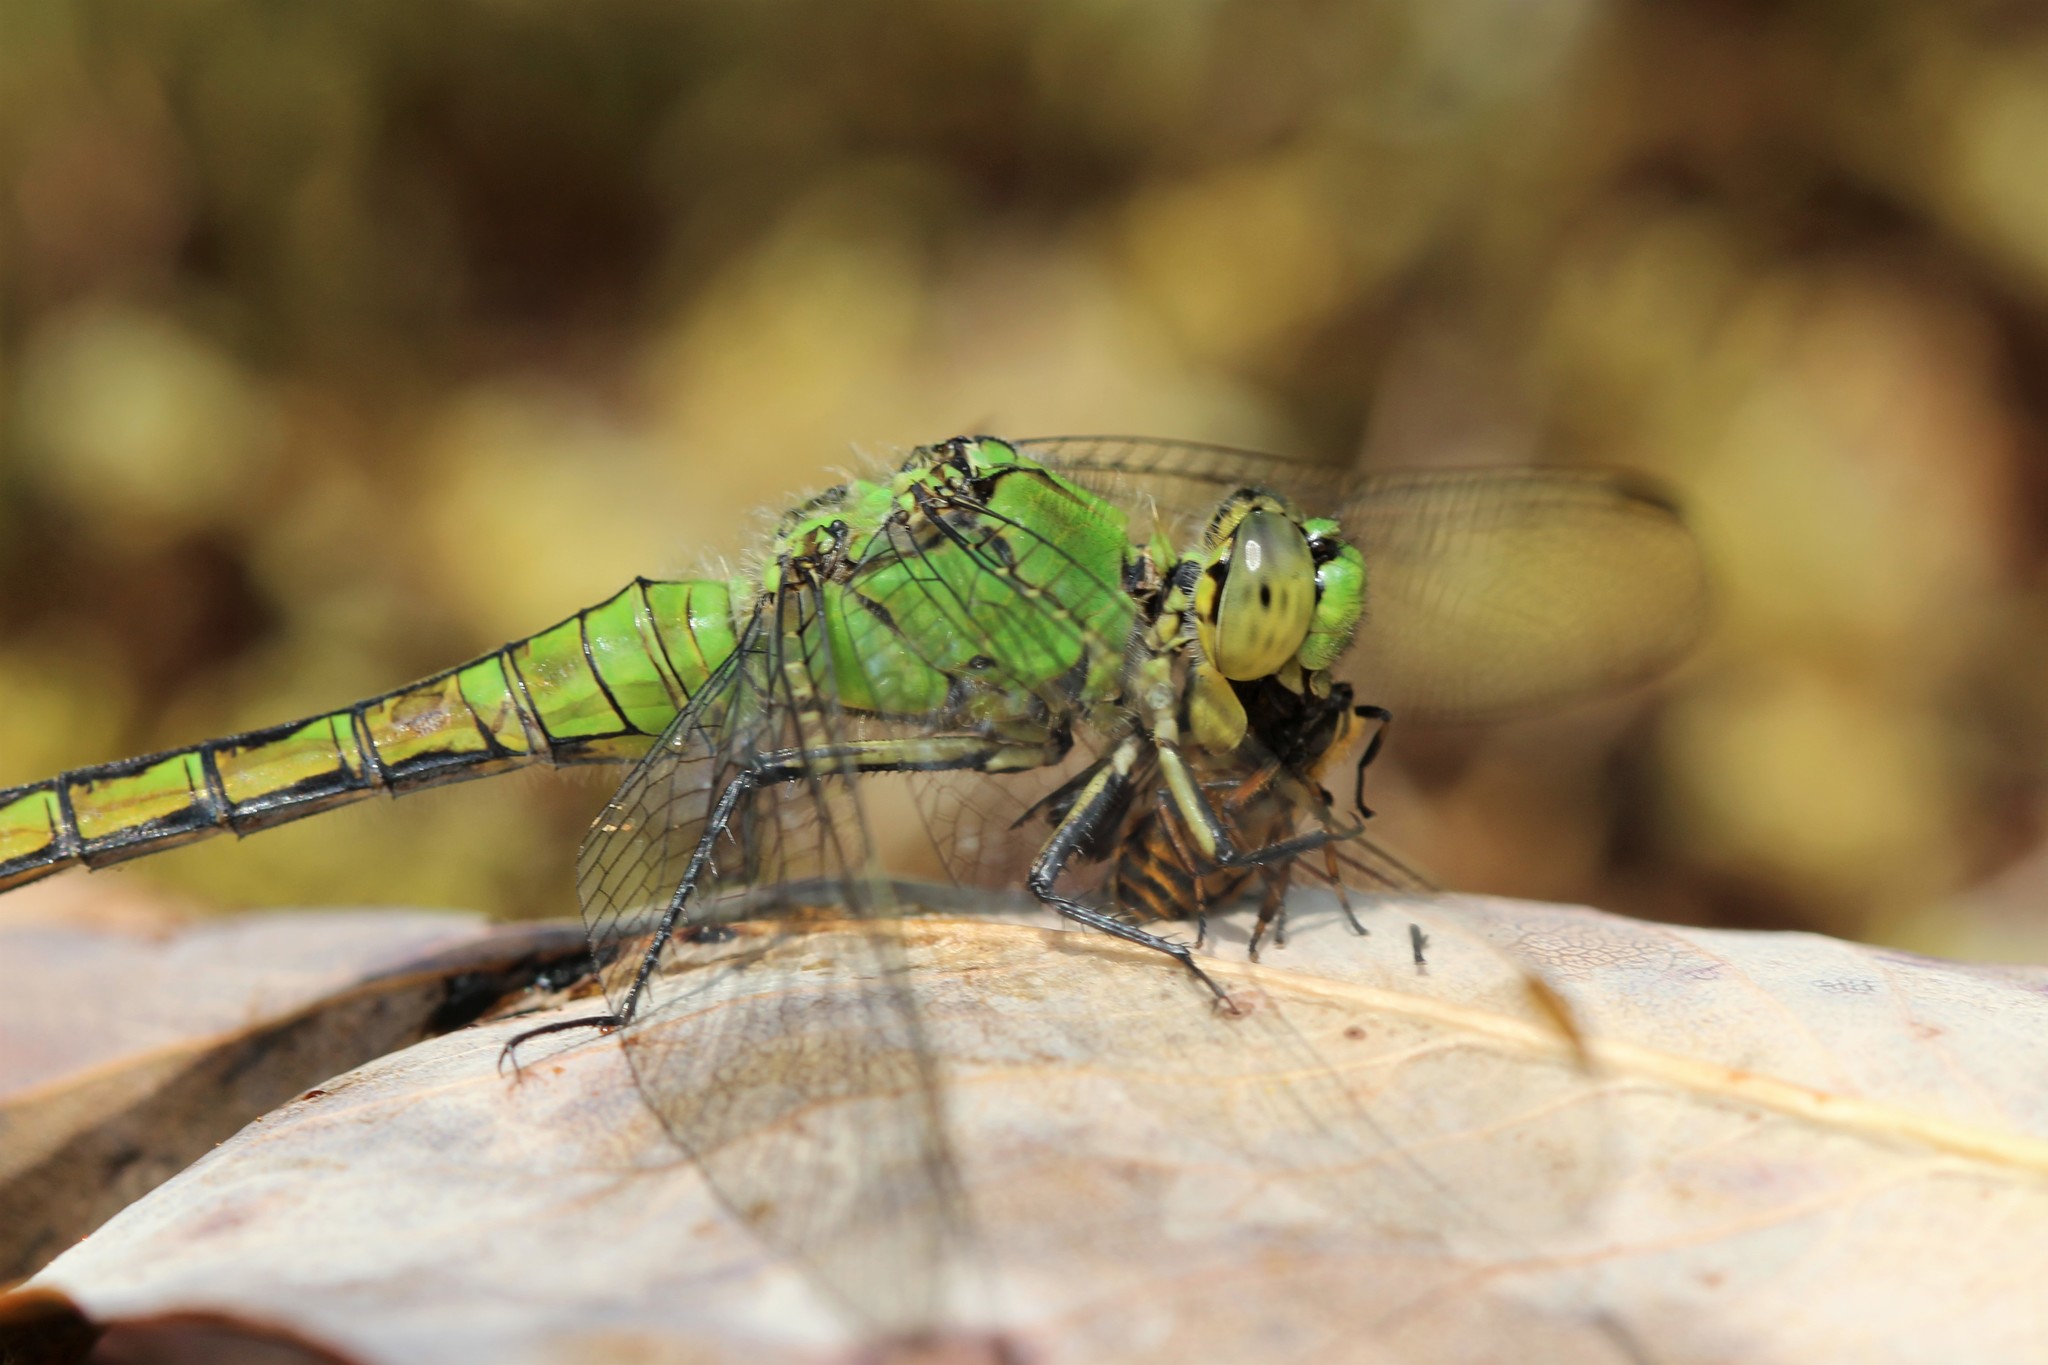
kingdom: Animalia
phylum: Arthropoda
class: Insecta
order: Odonata
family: Libellulidae
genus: Erythemis
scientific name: Erythemis collocata
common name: Western pondhawk
